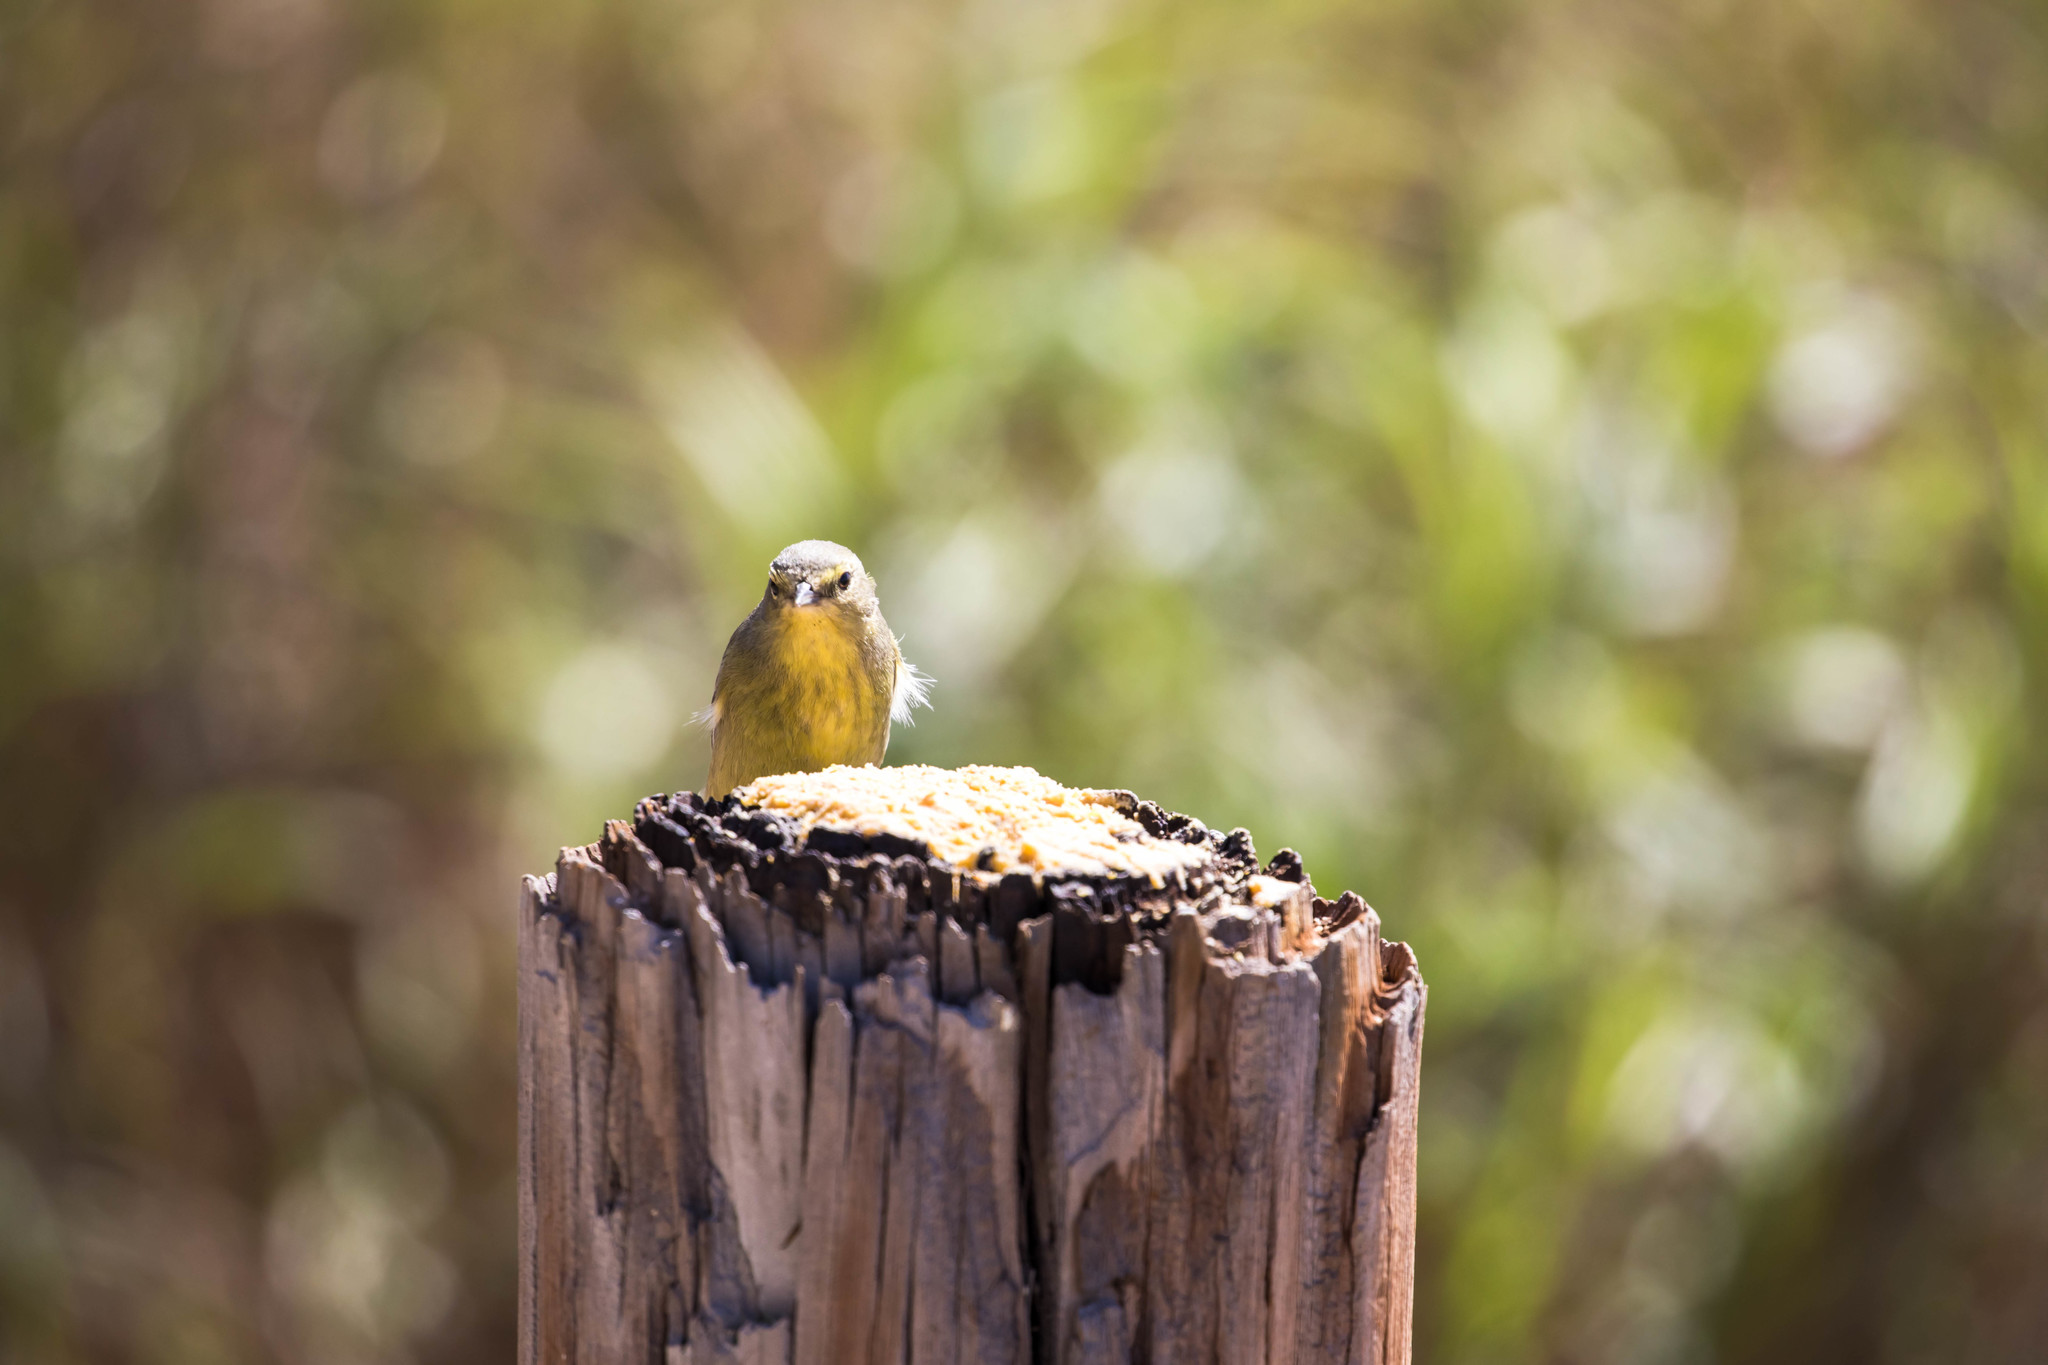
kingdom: Animalia
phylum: Chordata
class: Aves
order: Passeriformes
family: Parulidae
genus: Leiothlypis
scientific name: Leiothlypis celata
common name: Orange-crowned warbler
